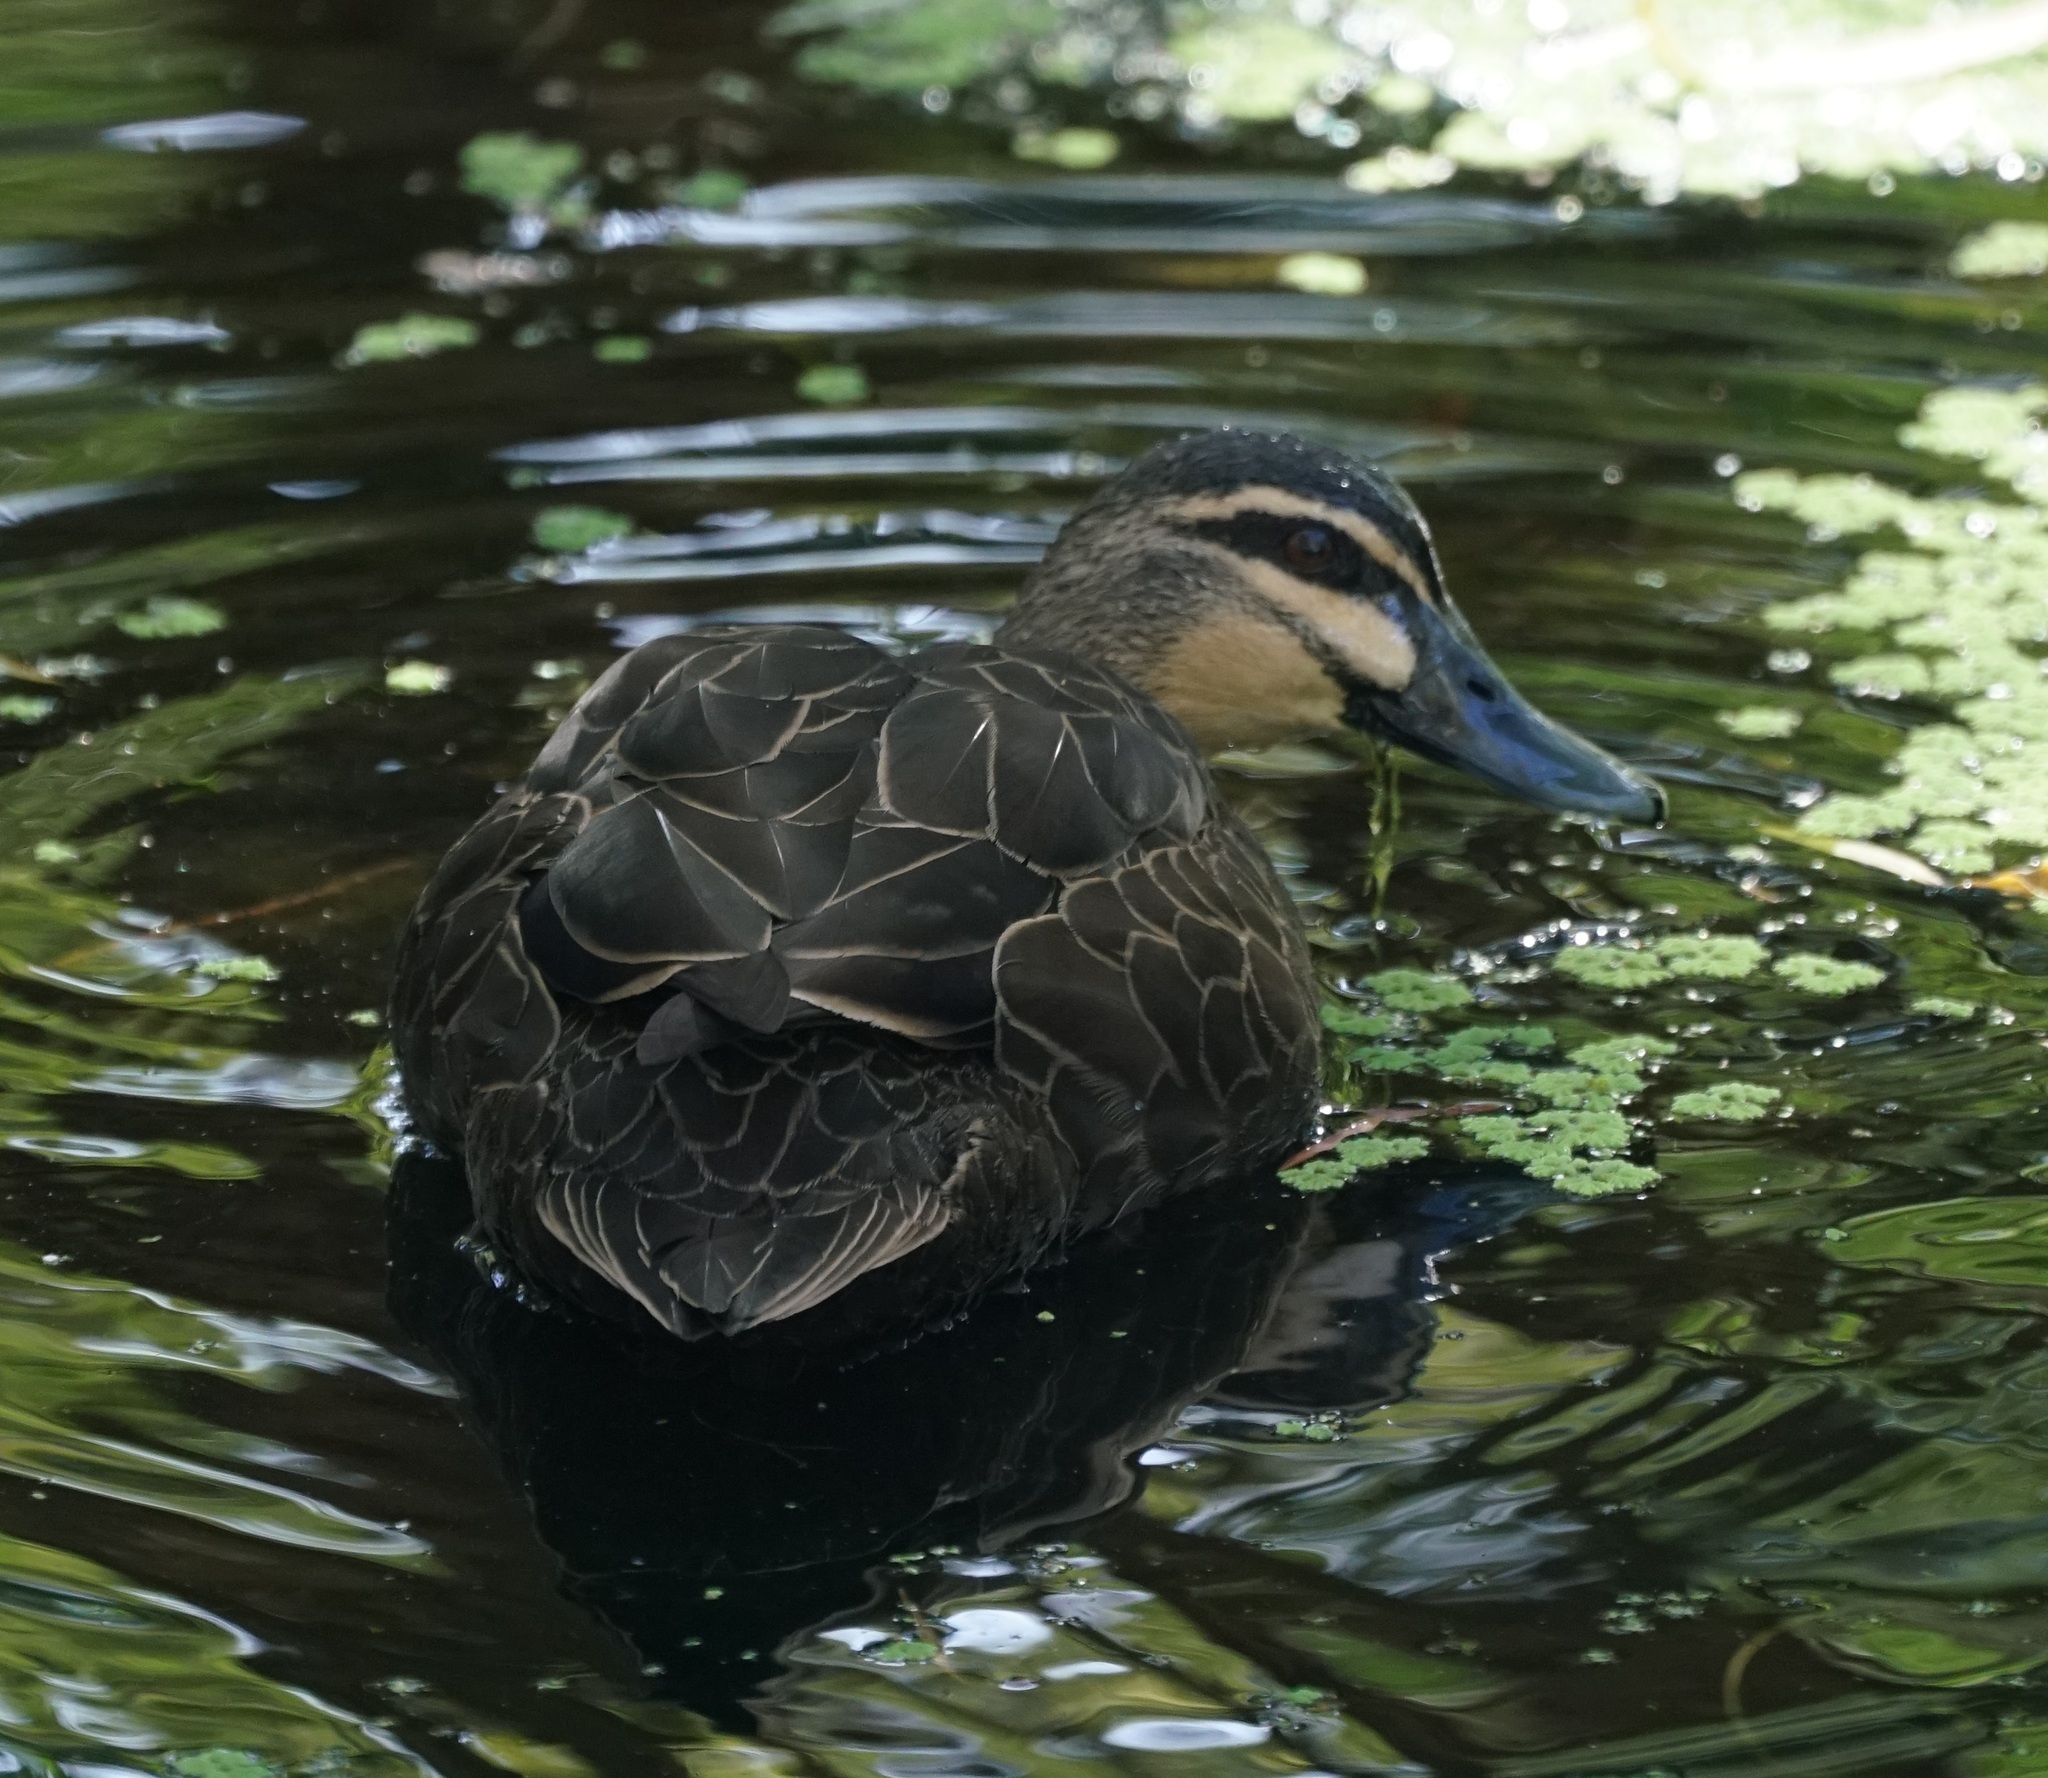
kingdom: Animalia
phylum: Chordata
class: Aves
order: Anseriformes
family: Anatidae
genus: Anas
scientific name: Anas superciliosa
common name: Pacific black duck
